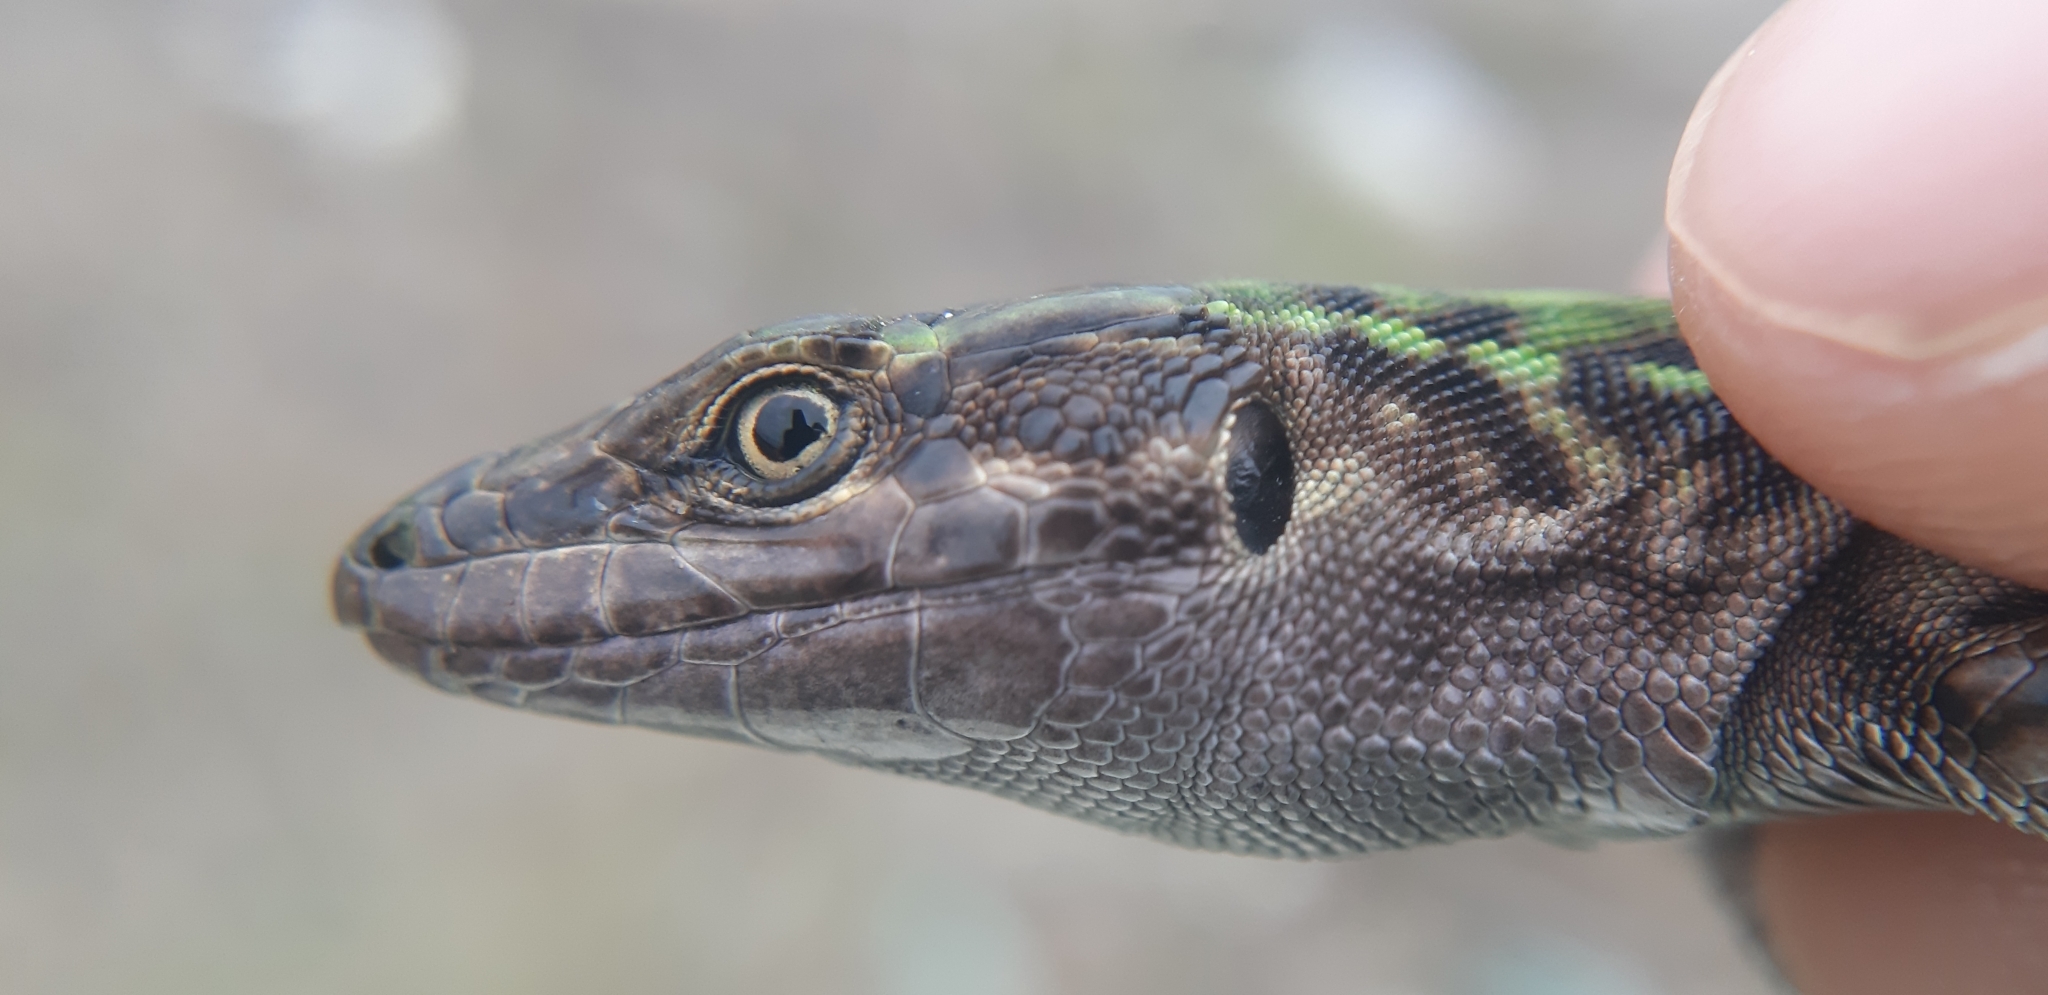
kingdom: Animalia
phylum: Chordata
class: Squamata
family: Lacertidae
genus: Podarcis
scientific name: Podarcis siculus
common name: Italian wall lizard
